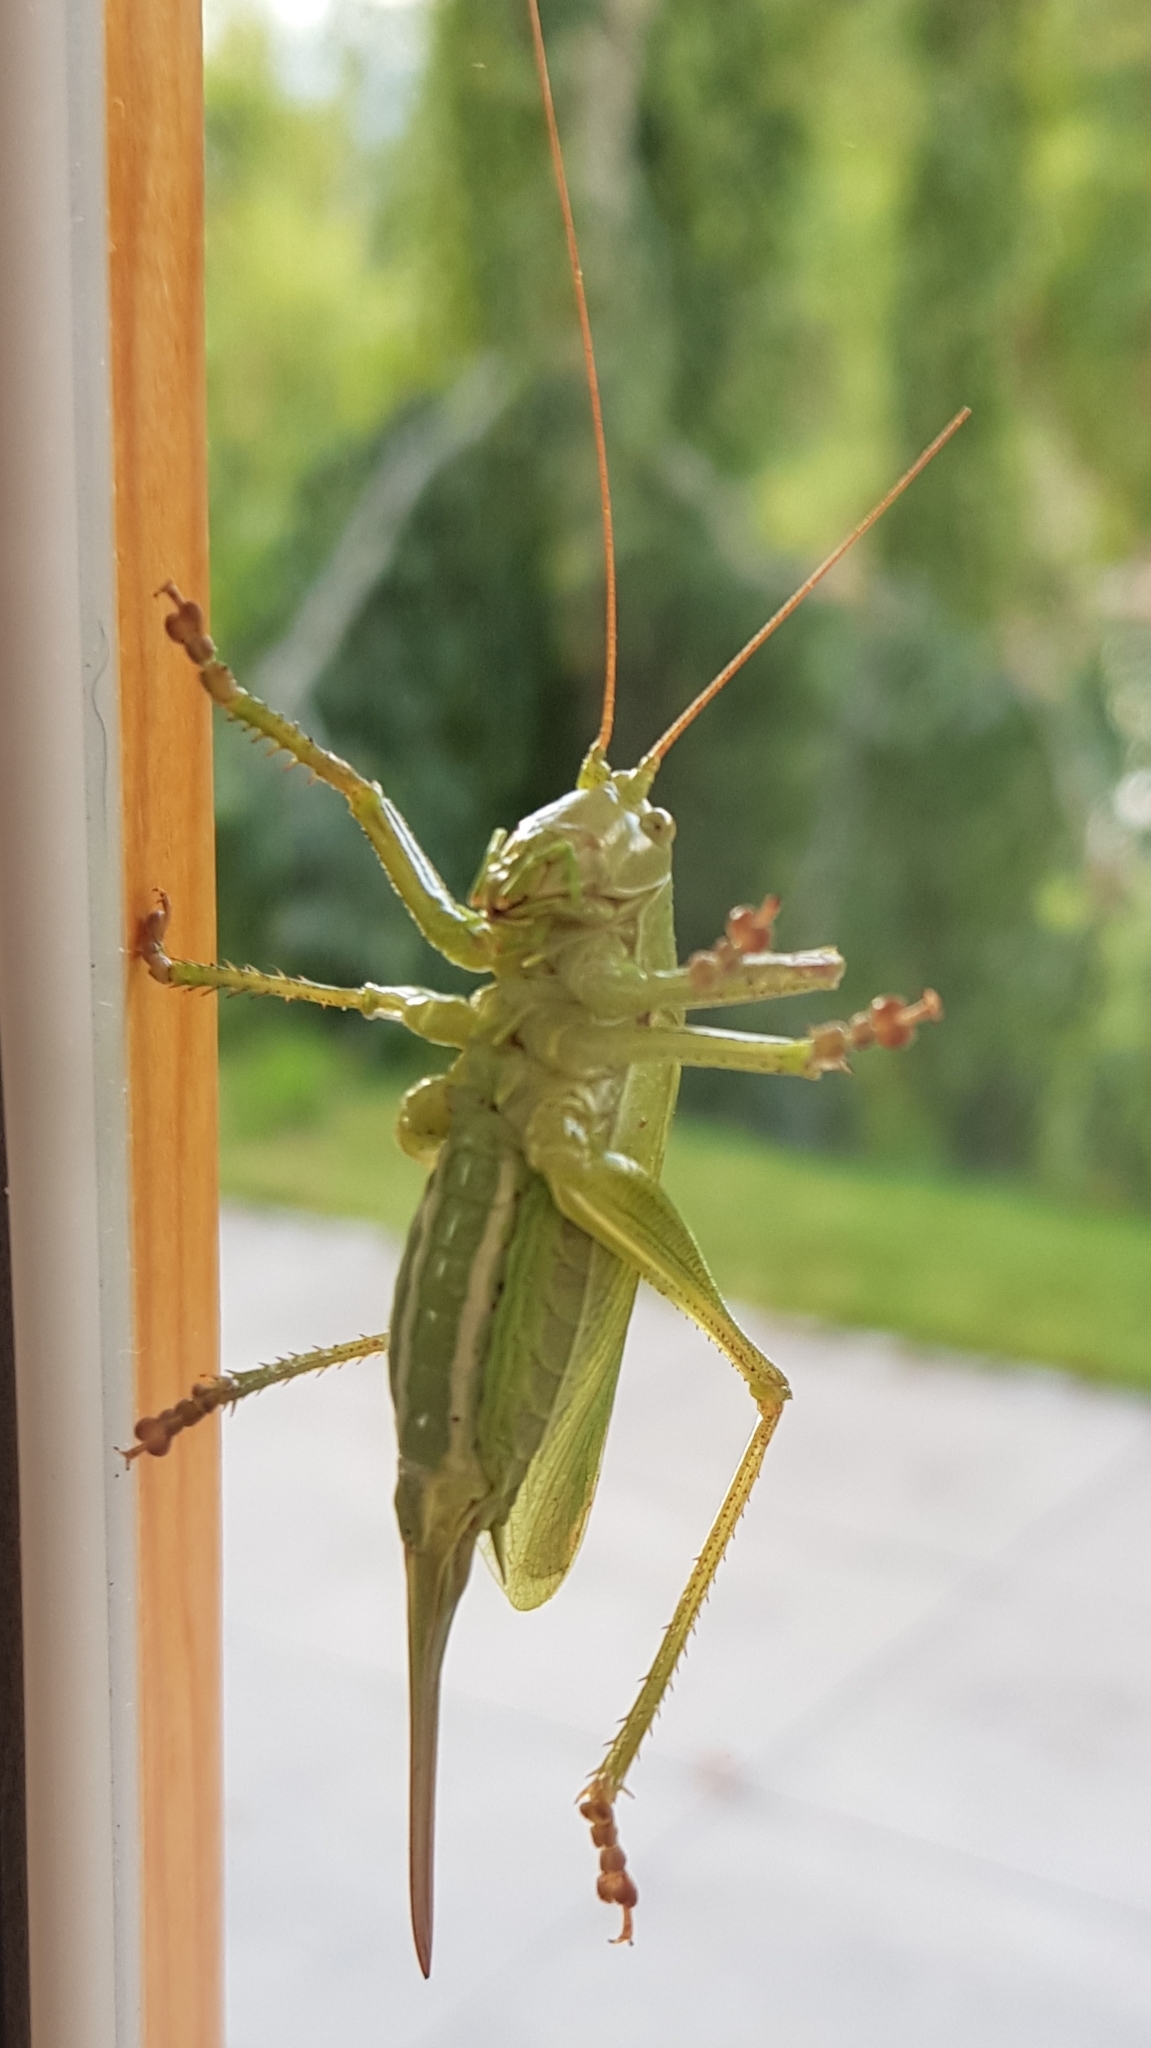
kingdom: Animalia
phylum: Arthropoda
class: Insecta
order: Orthoptera
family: Tettigoniidae
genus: Tettigonia
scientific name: Tettigonia cantans
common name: Upland green bush-cricket
